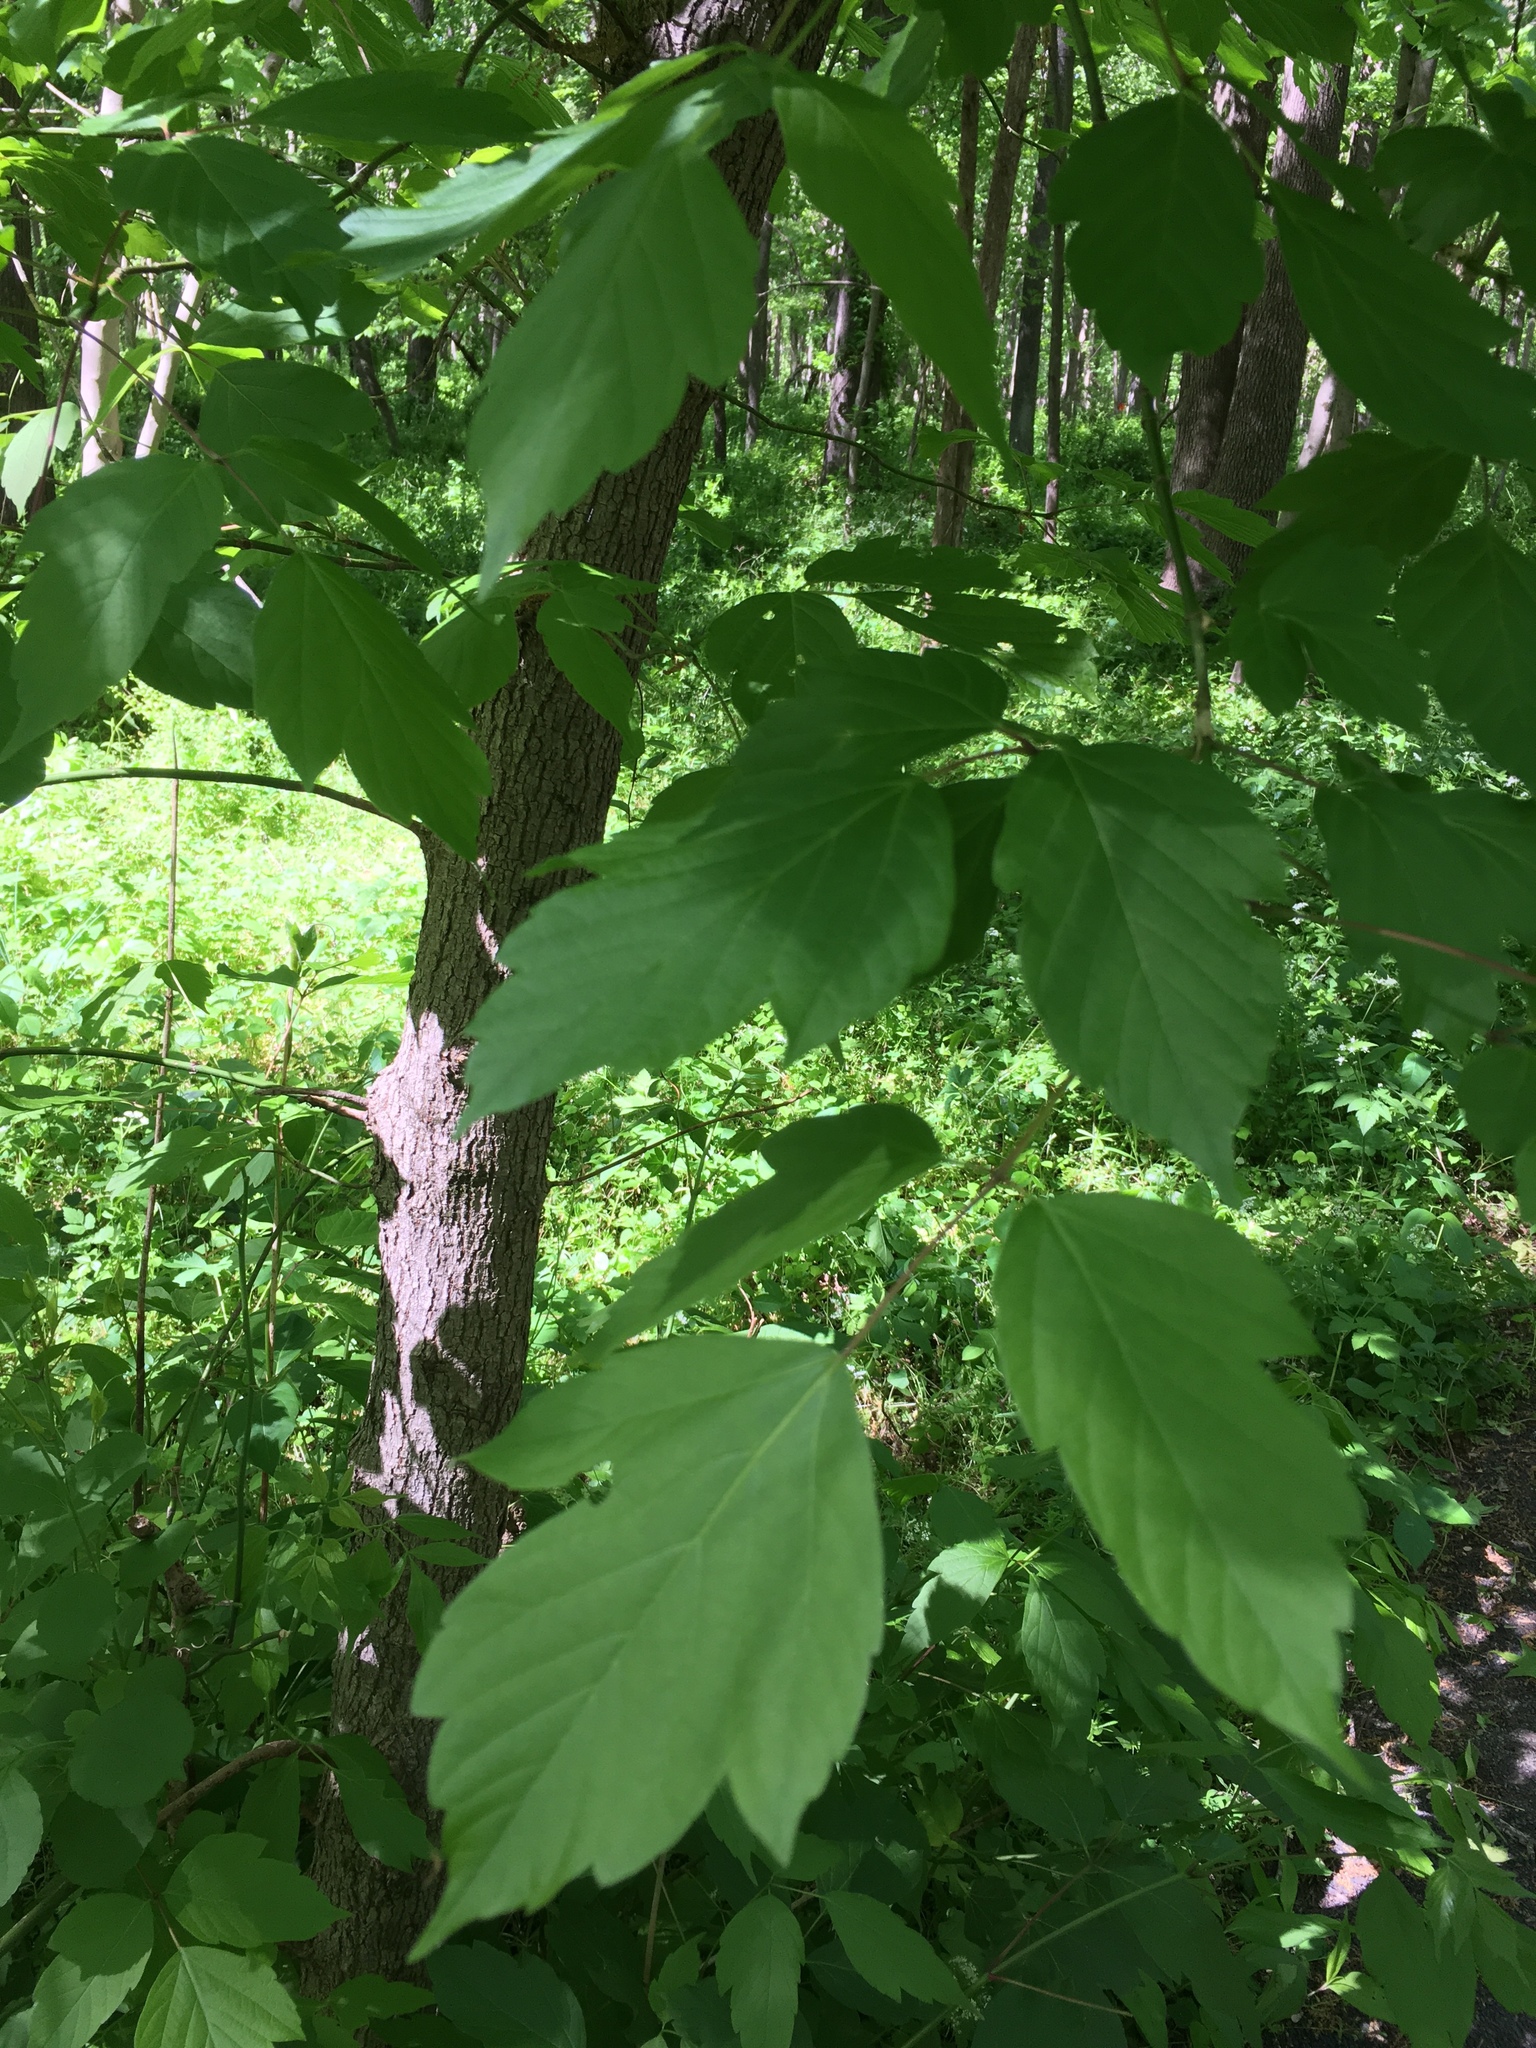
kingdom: Plantae
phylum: Tracheophyta
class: Magnoliopsida
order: Sapindales
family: Sapindaceae
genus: Acer
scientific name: Acer negundo
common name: Ashleaf maple
